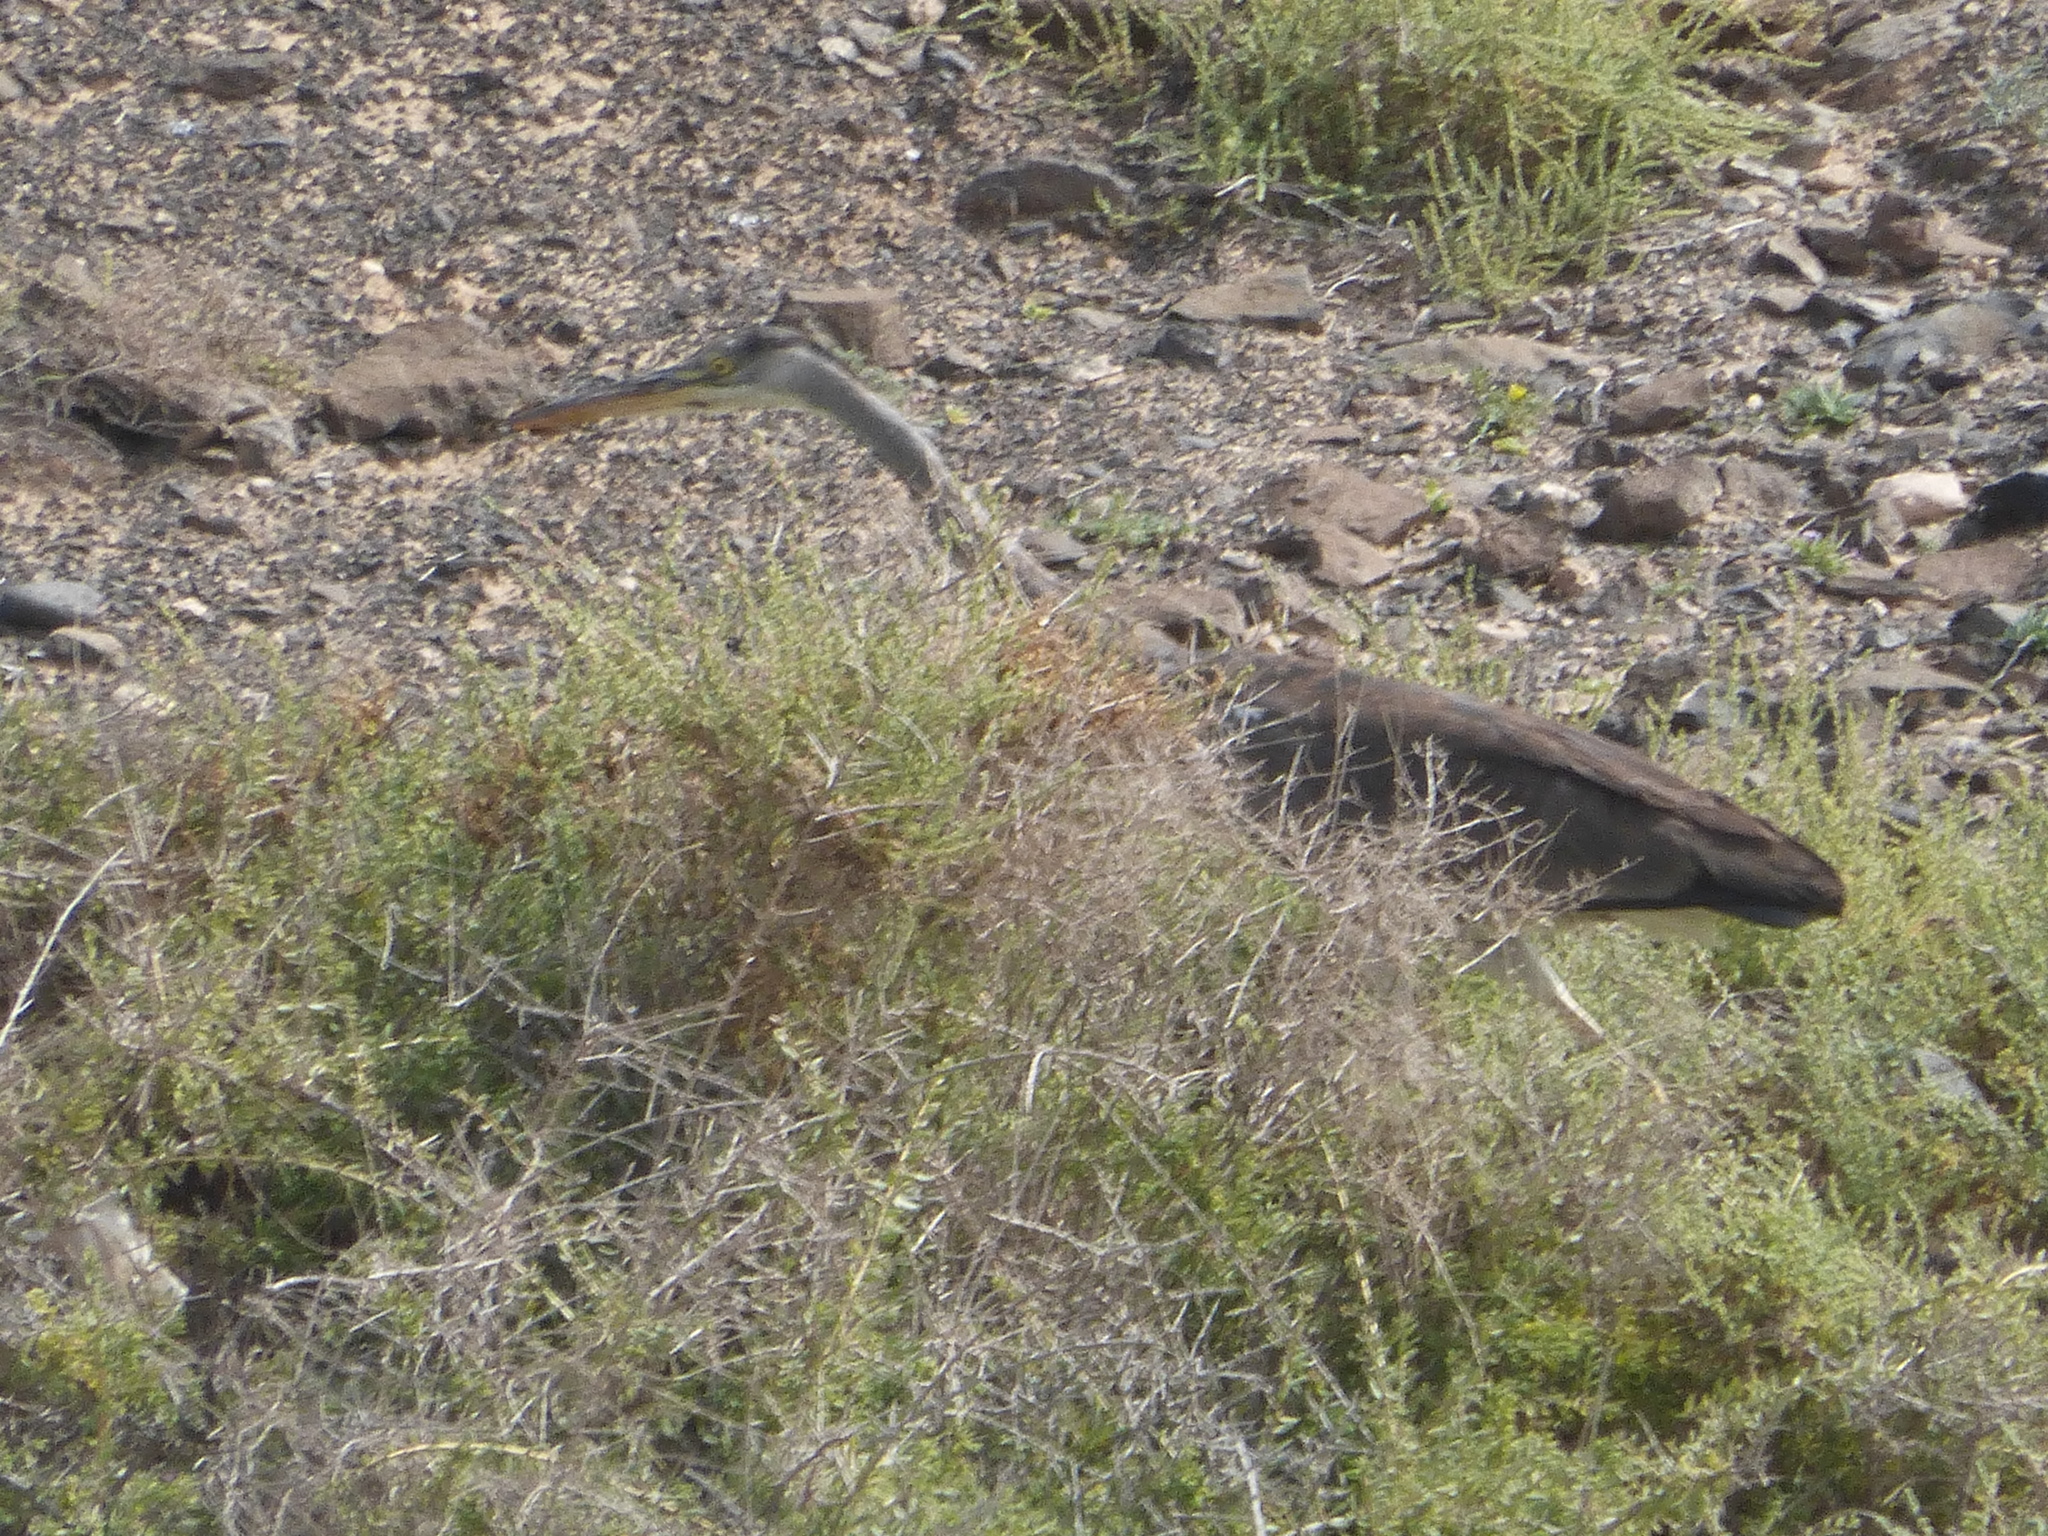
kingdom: Animalia
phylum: Chordata
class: Aves
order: Pelecaniformes
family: Ardeidae
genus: Ardea
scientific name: Ardea cinerea
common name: Grey heron
